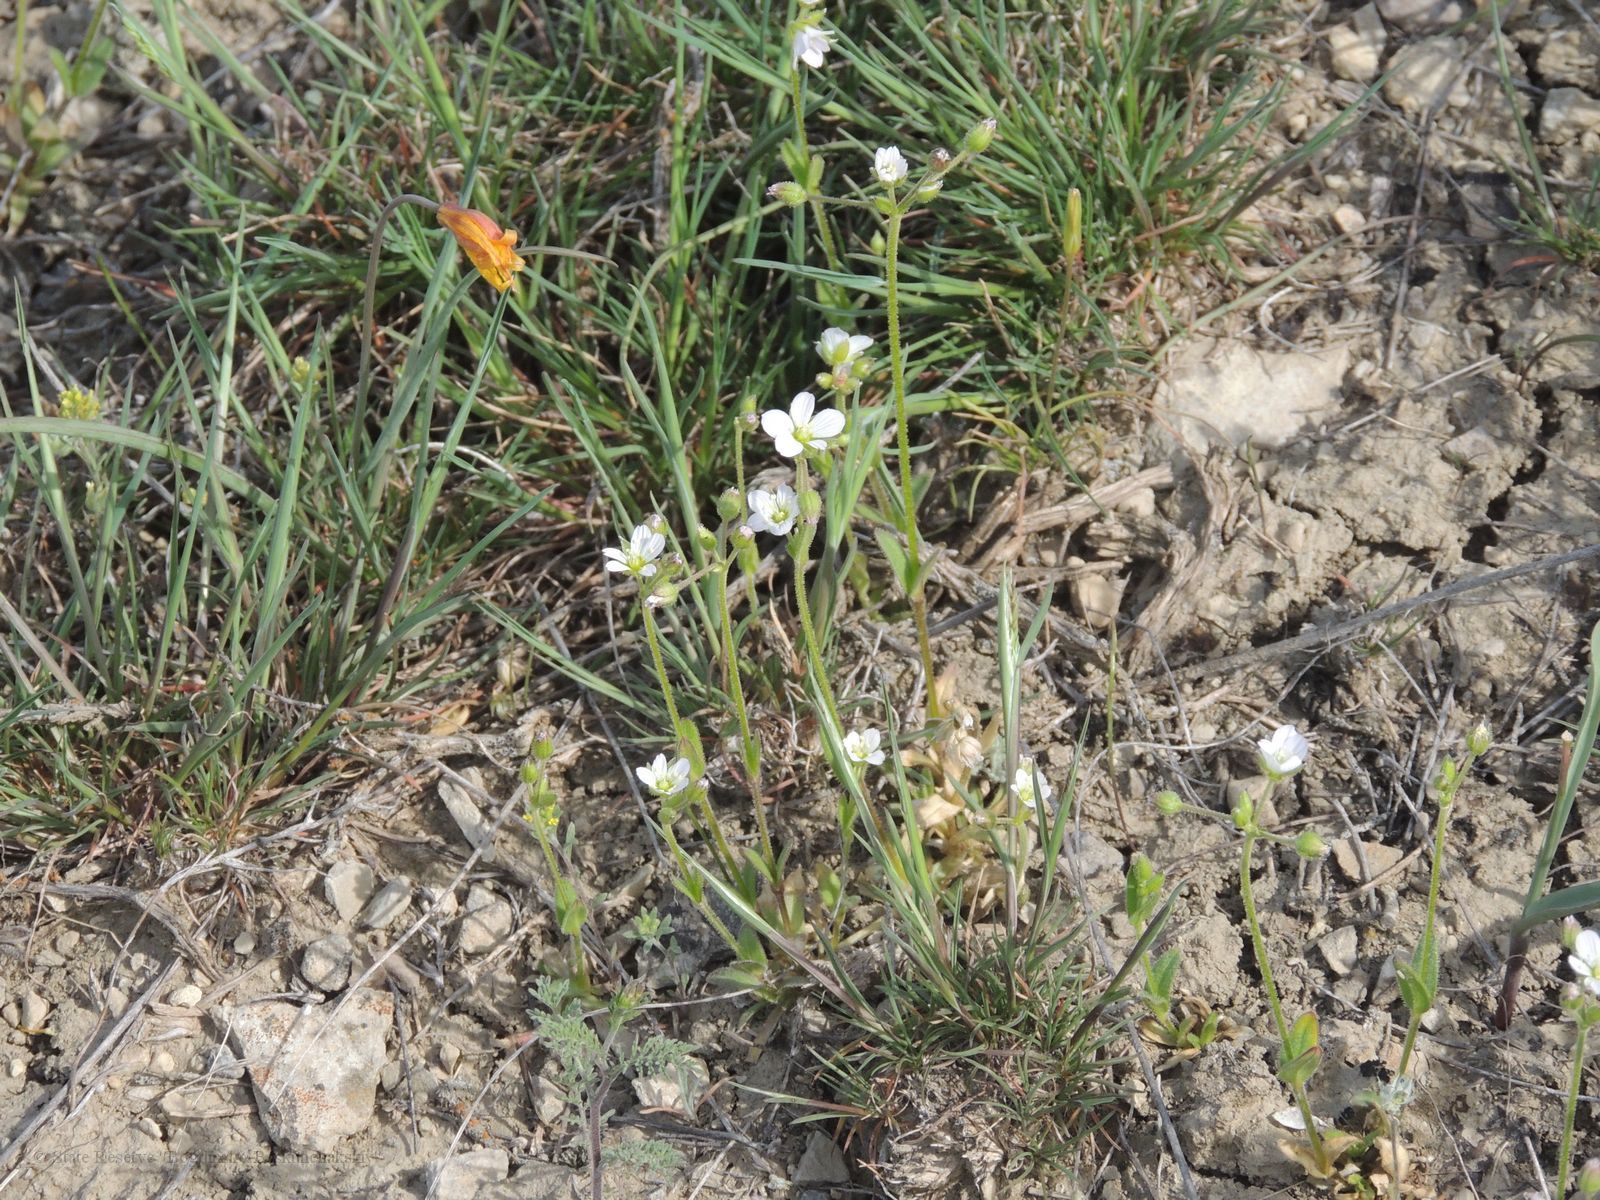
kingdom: Plantae
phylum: Tracheophyta
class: Magnoliopsida
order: Caryophyllales
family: Caryophyllaceae
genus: Holosteum
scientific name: Holosteum glutinosum
